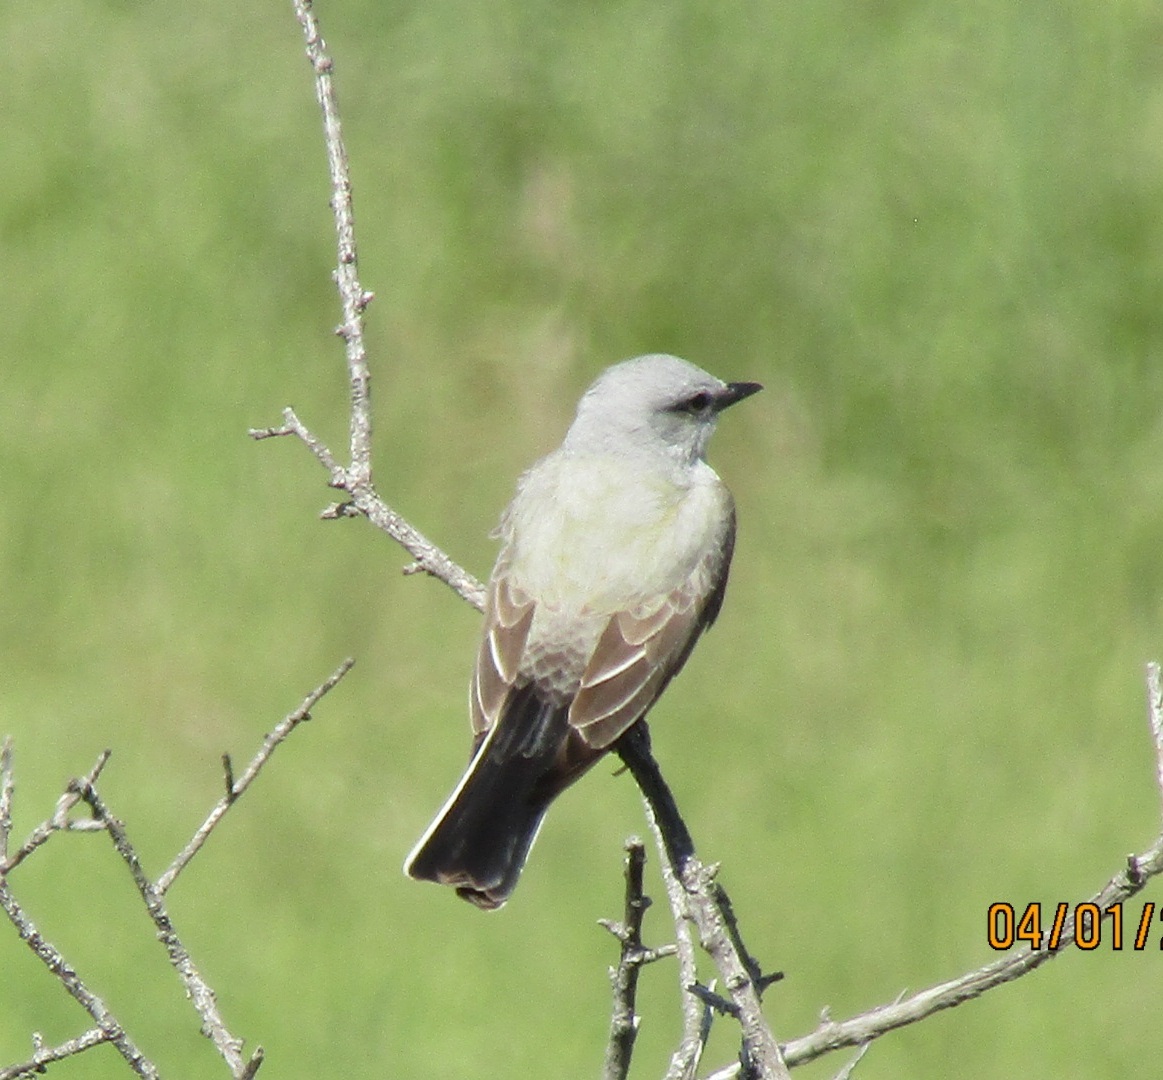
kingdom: Animalia
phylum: Chordata
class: Aves
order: Passeriformes
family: Tyrannidae
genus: Tyrannus
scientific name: Tyrannus verticalis
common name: Western kingbird
